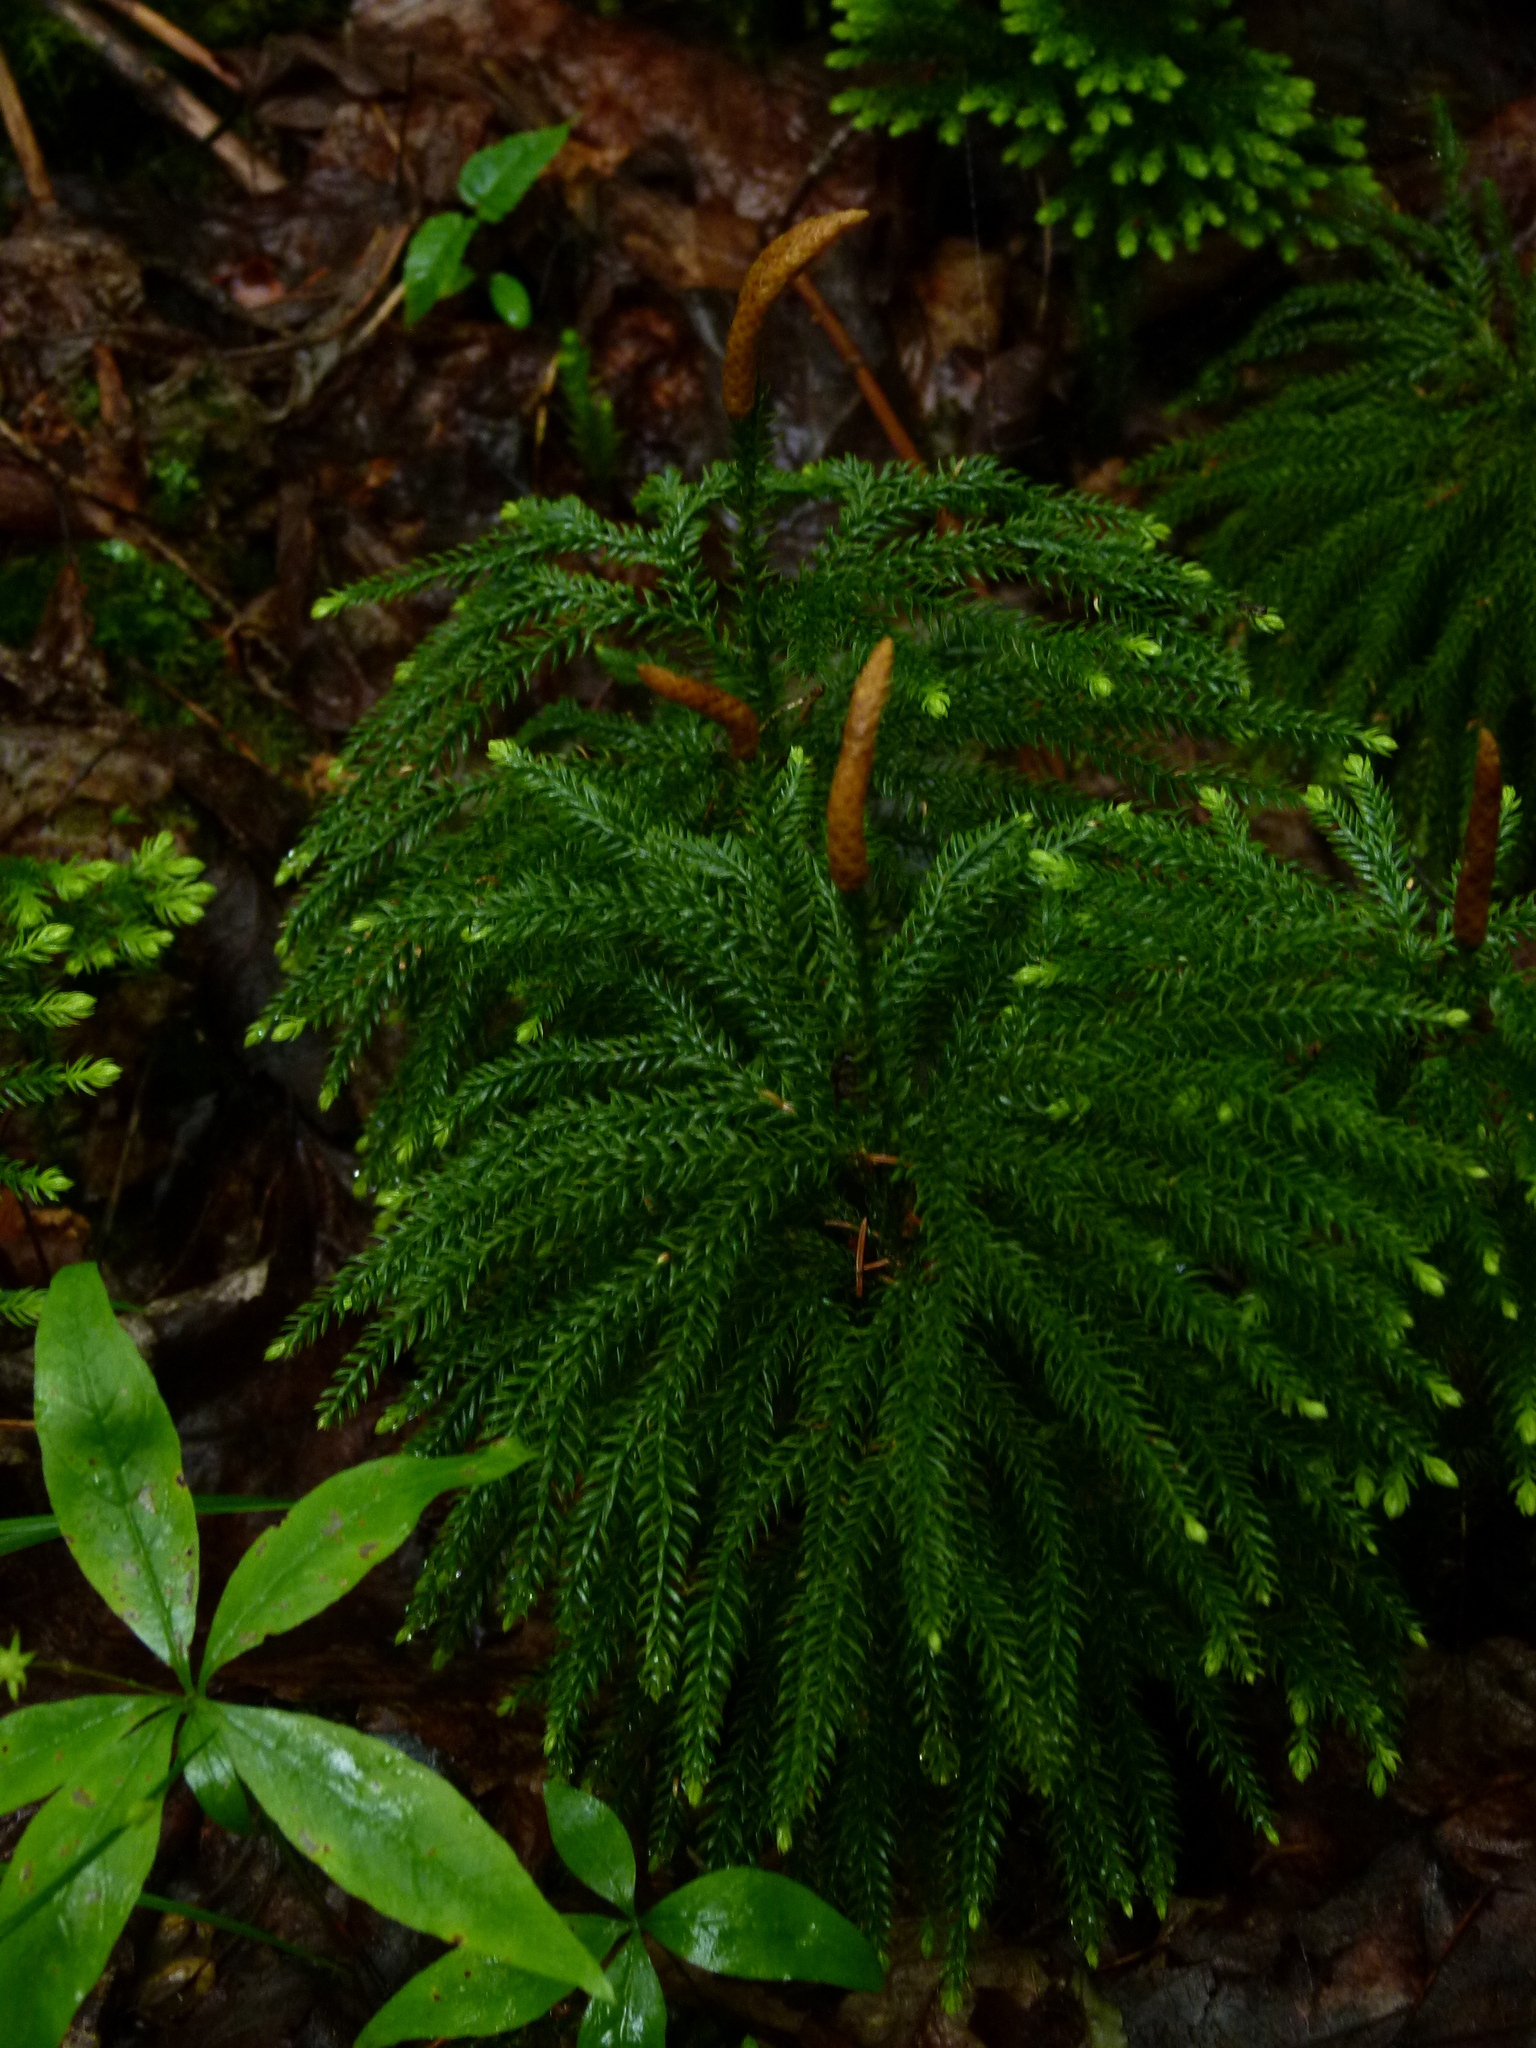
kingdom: Plantae
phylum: Tracheophyta
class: Lycopodiopsida
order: Lycopodiales
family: Lycopodiaceae
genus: Dendrolycopodium
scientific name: Dendrolycopodium dendroideum
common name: Northern tree-clubmoss
